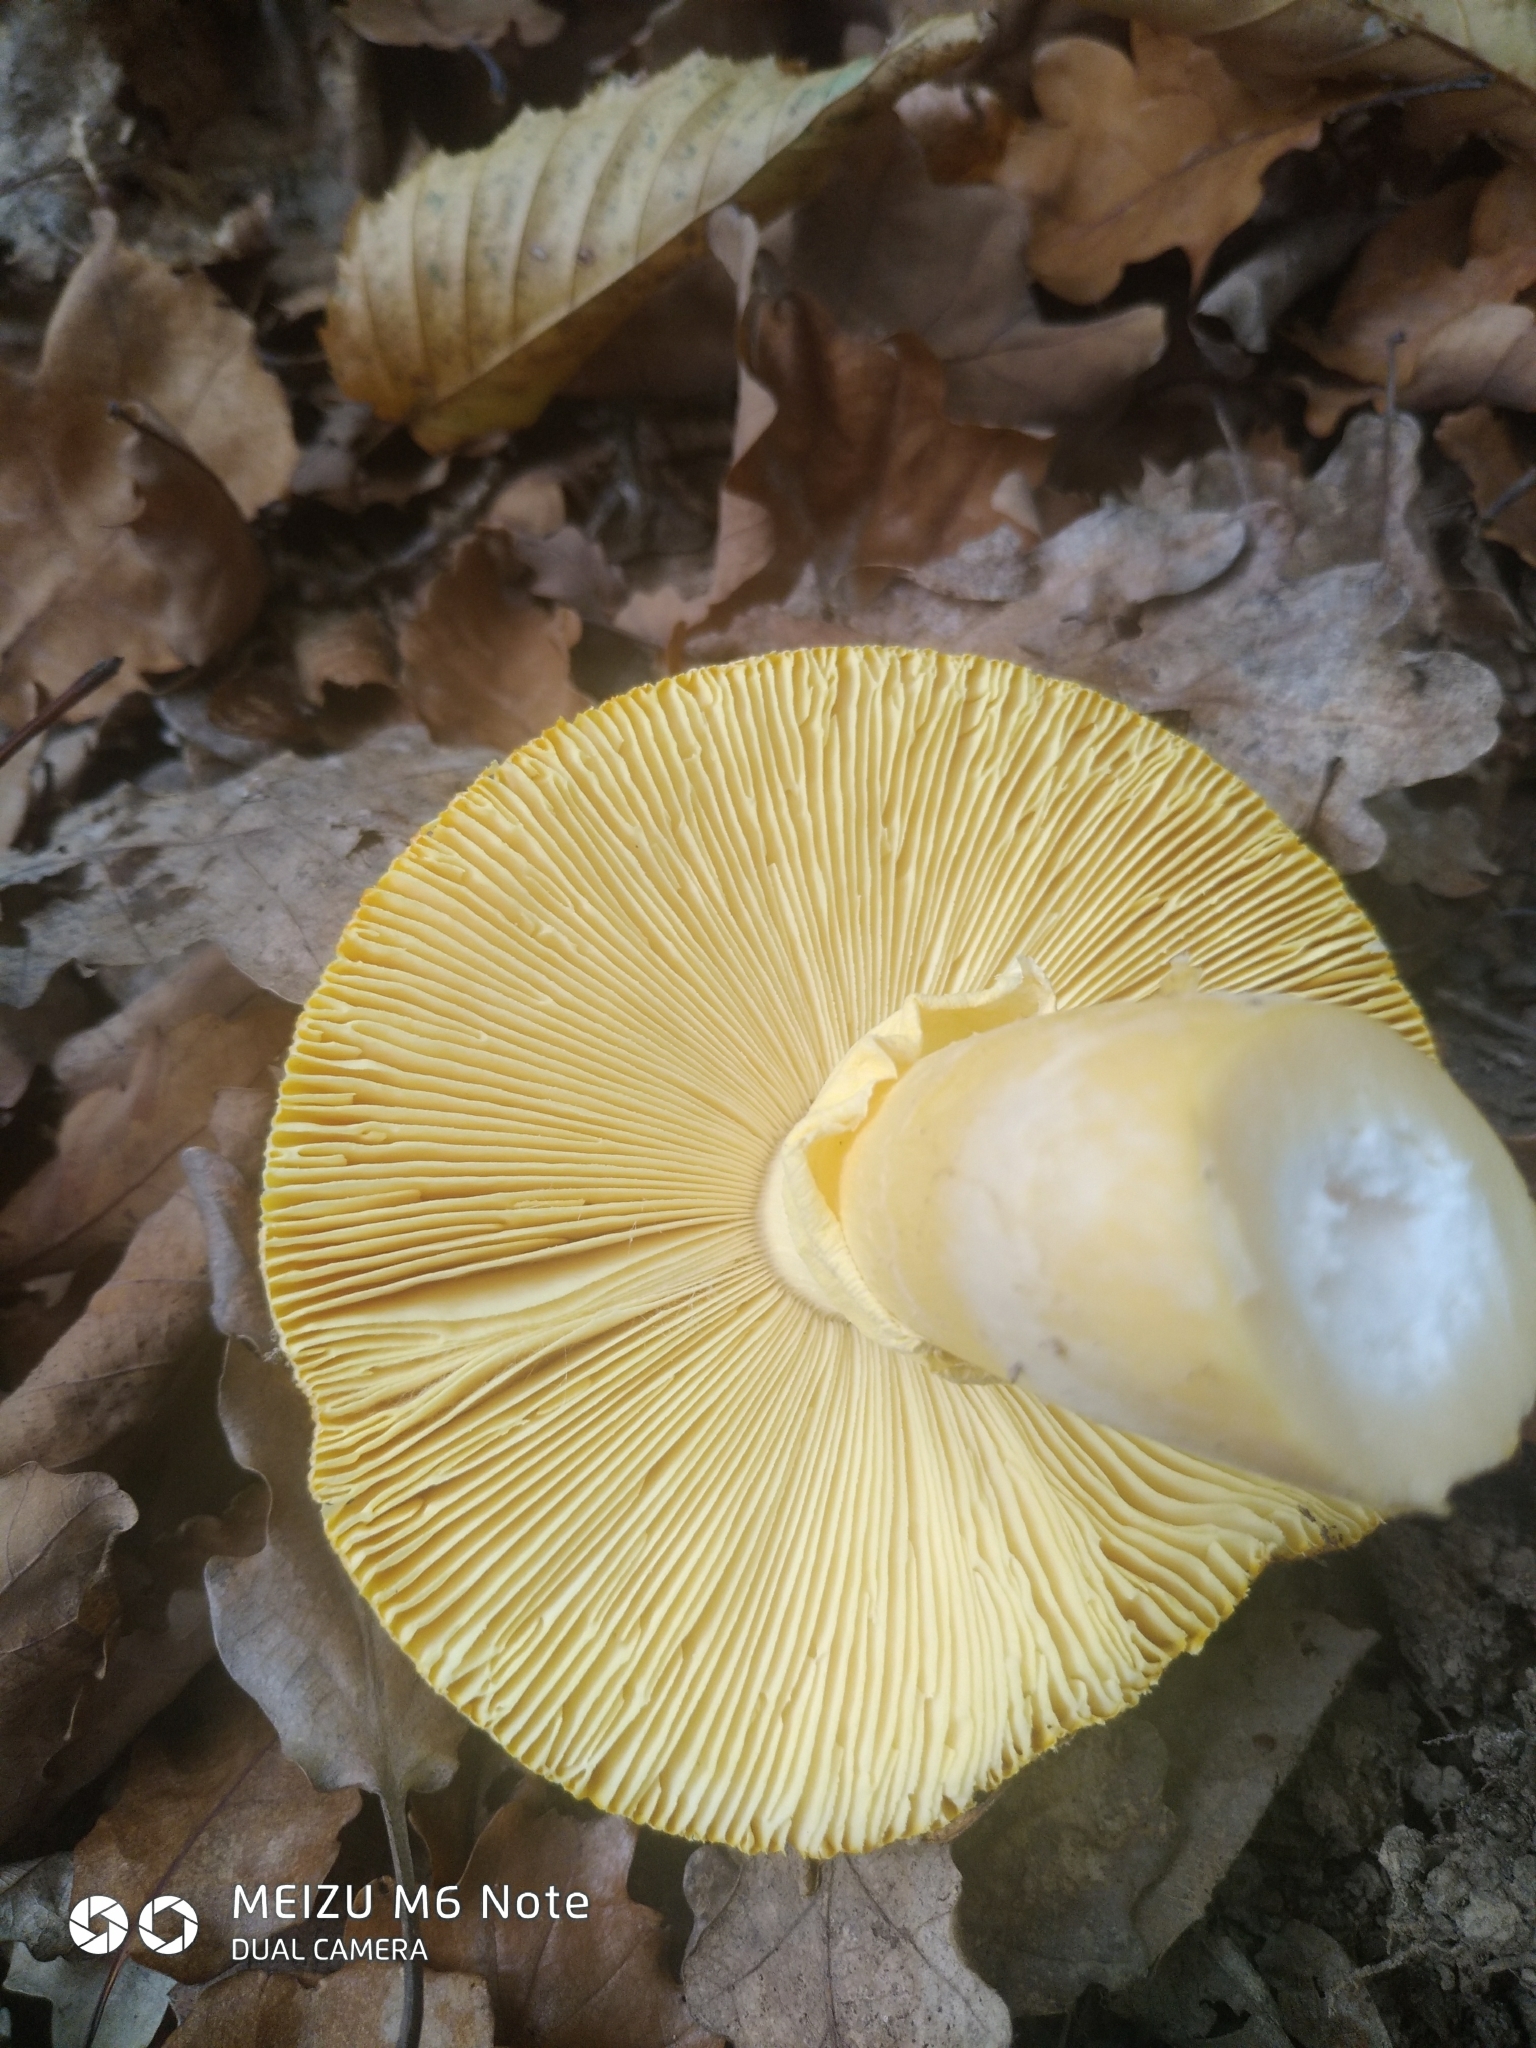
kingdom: Fungi
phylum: Basidiomycota
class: Agaricomycetes
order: Agaricales
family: Amanitaceae
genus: Amanita
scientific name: Amanita caesarea
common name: Caesar's amanita
